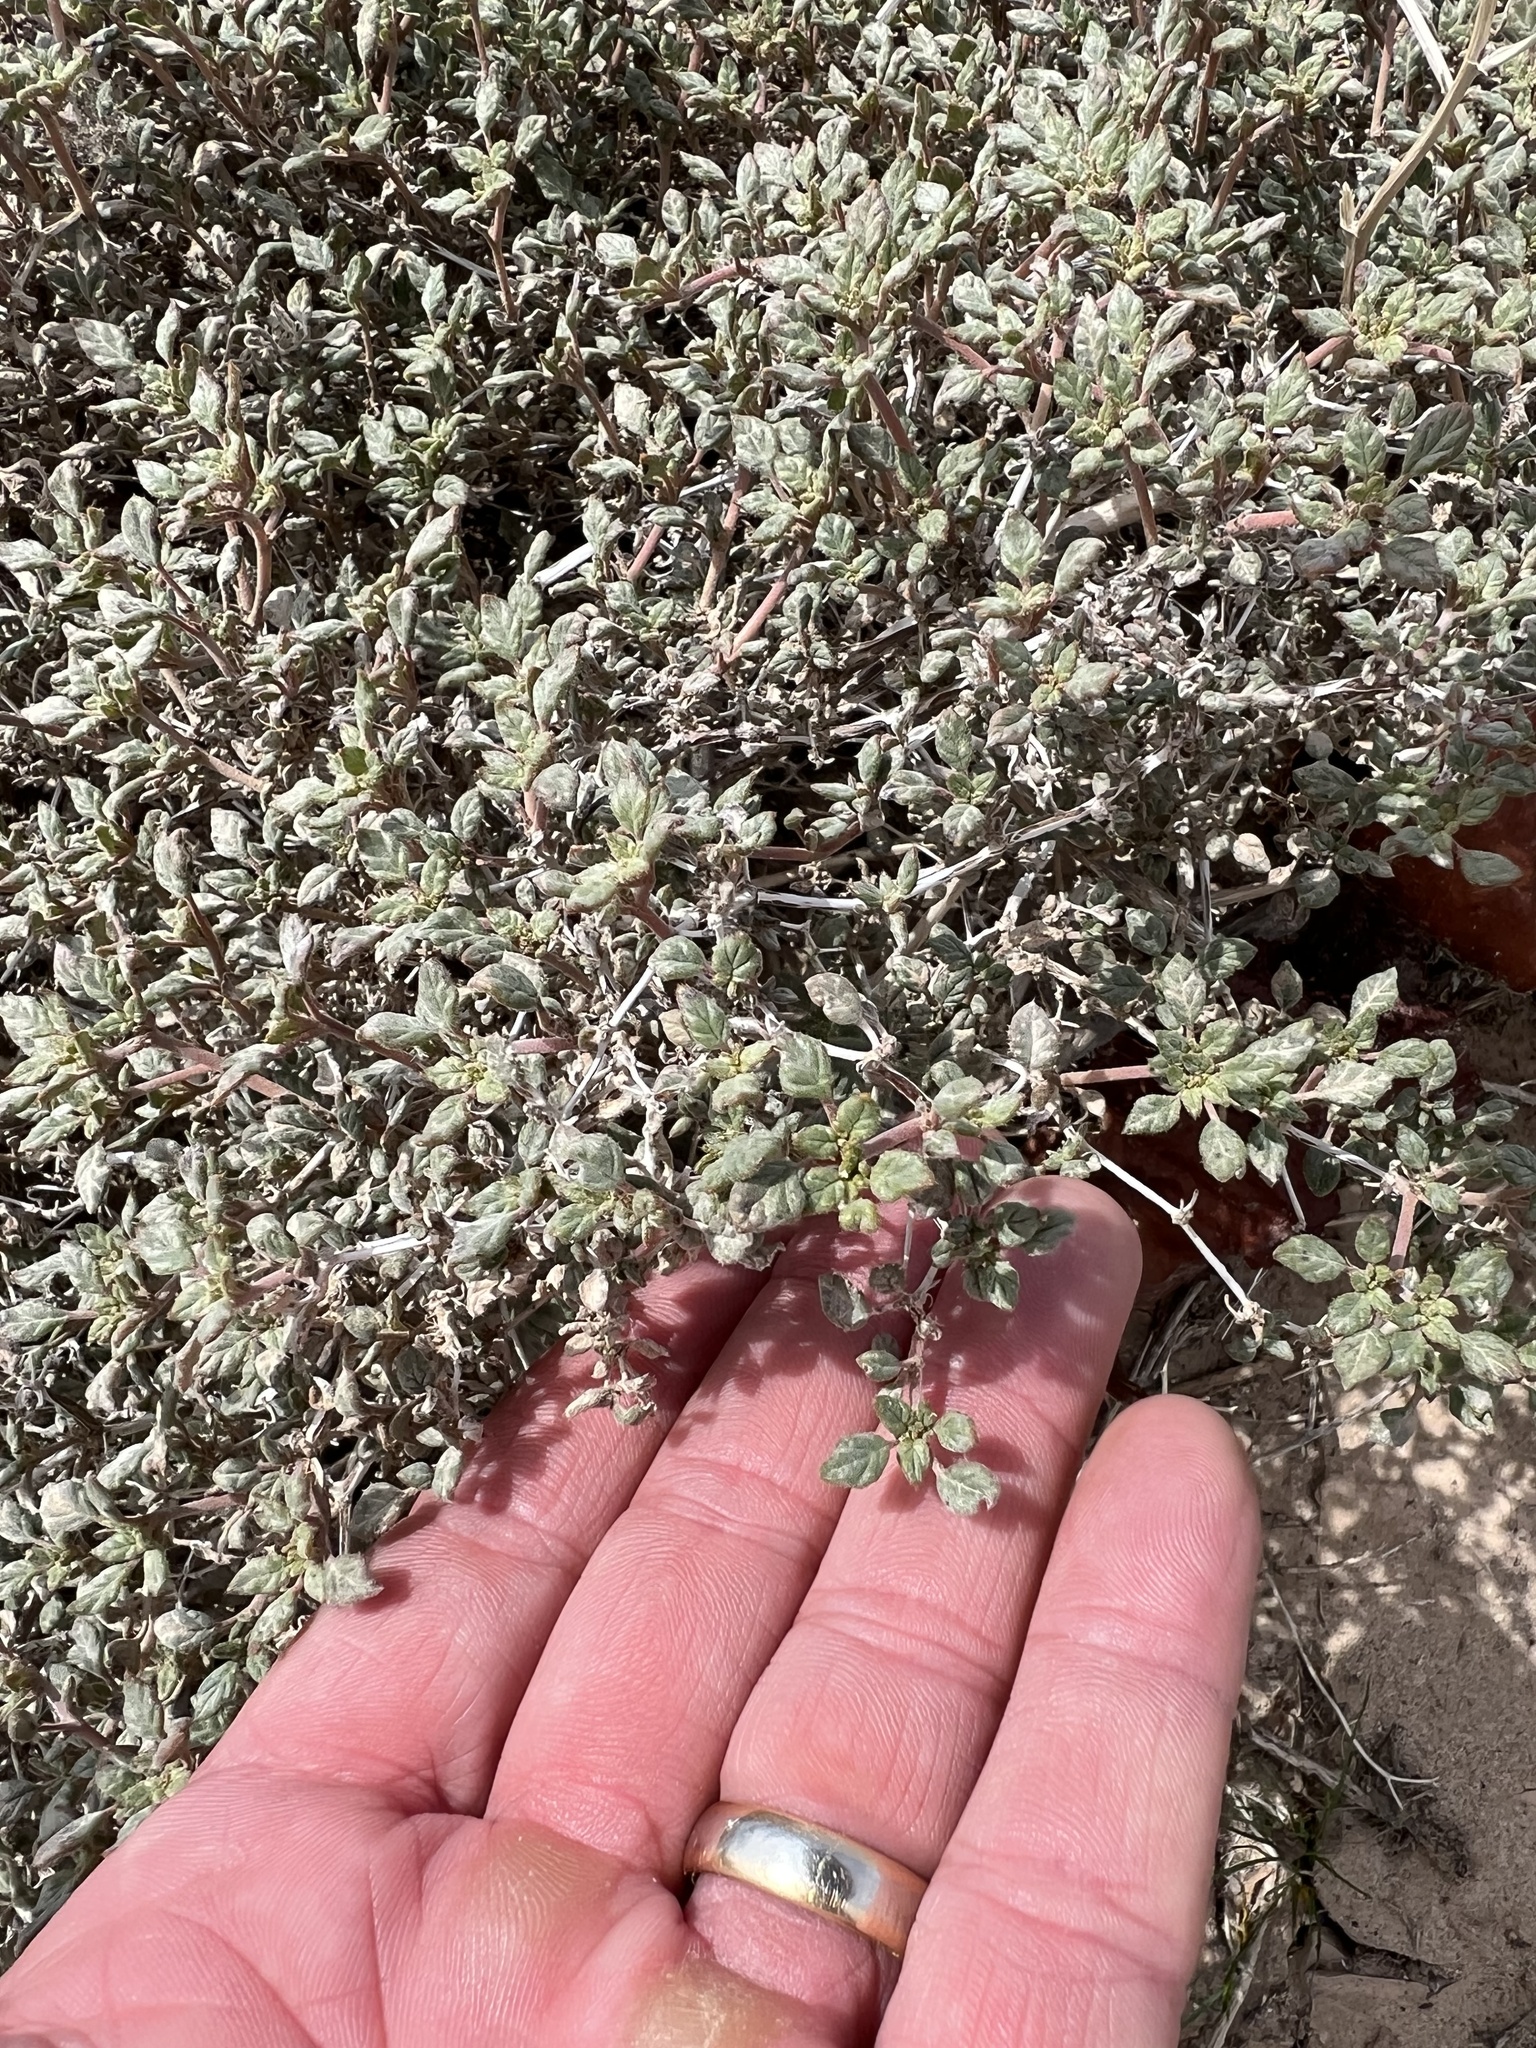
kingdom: Plantae
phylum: Tracheophyta
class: Magnoliopsida
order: Boraginales
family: Ehretiaceae
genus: Tiquilia
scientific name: Tiquilia palmeri
